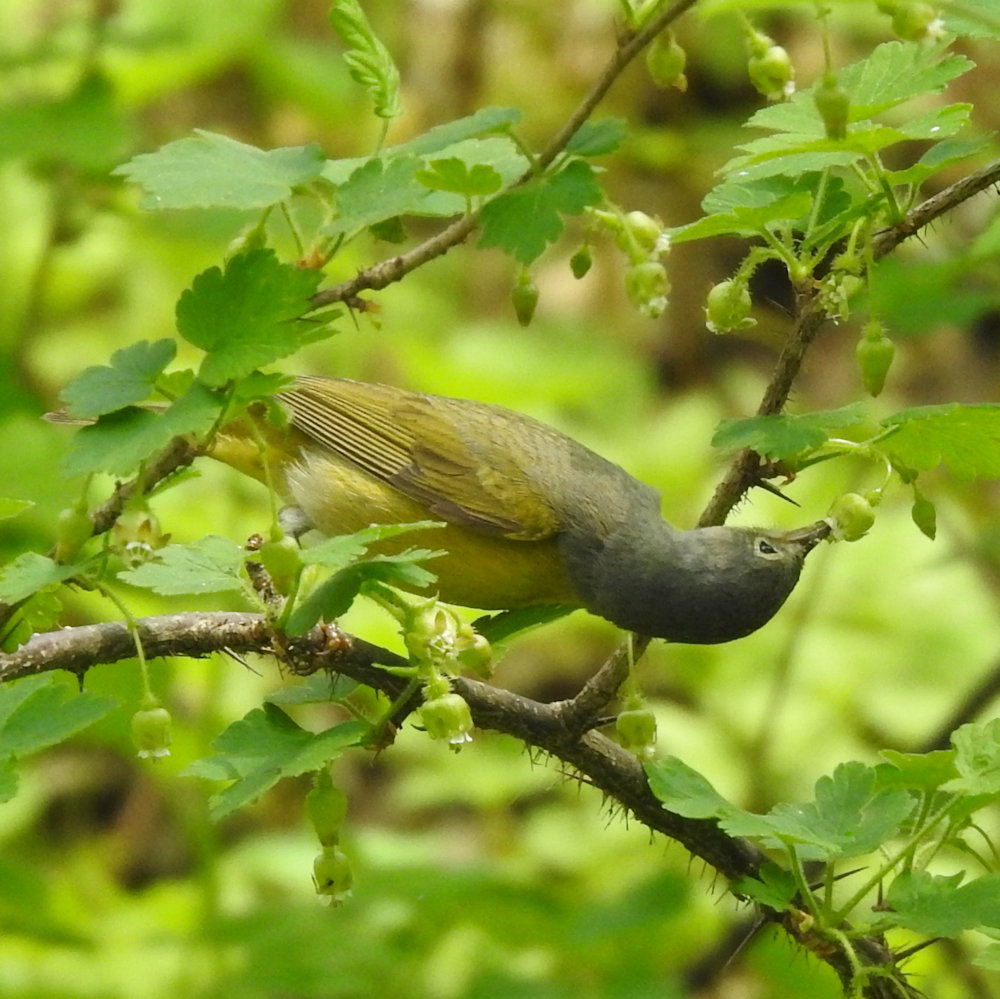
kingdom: Animalia
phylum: Chordata
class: Aves
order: Passeriformes
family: Parulidae
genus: Leiothlypis
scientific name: Leiothlypis ruficapilla
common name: Nashville warbler
